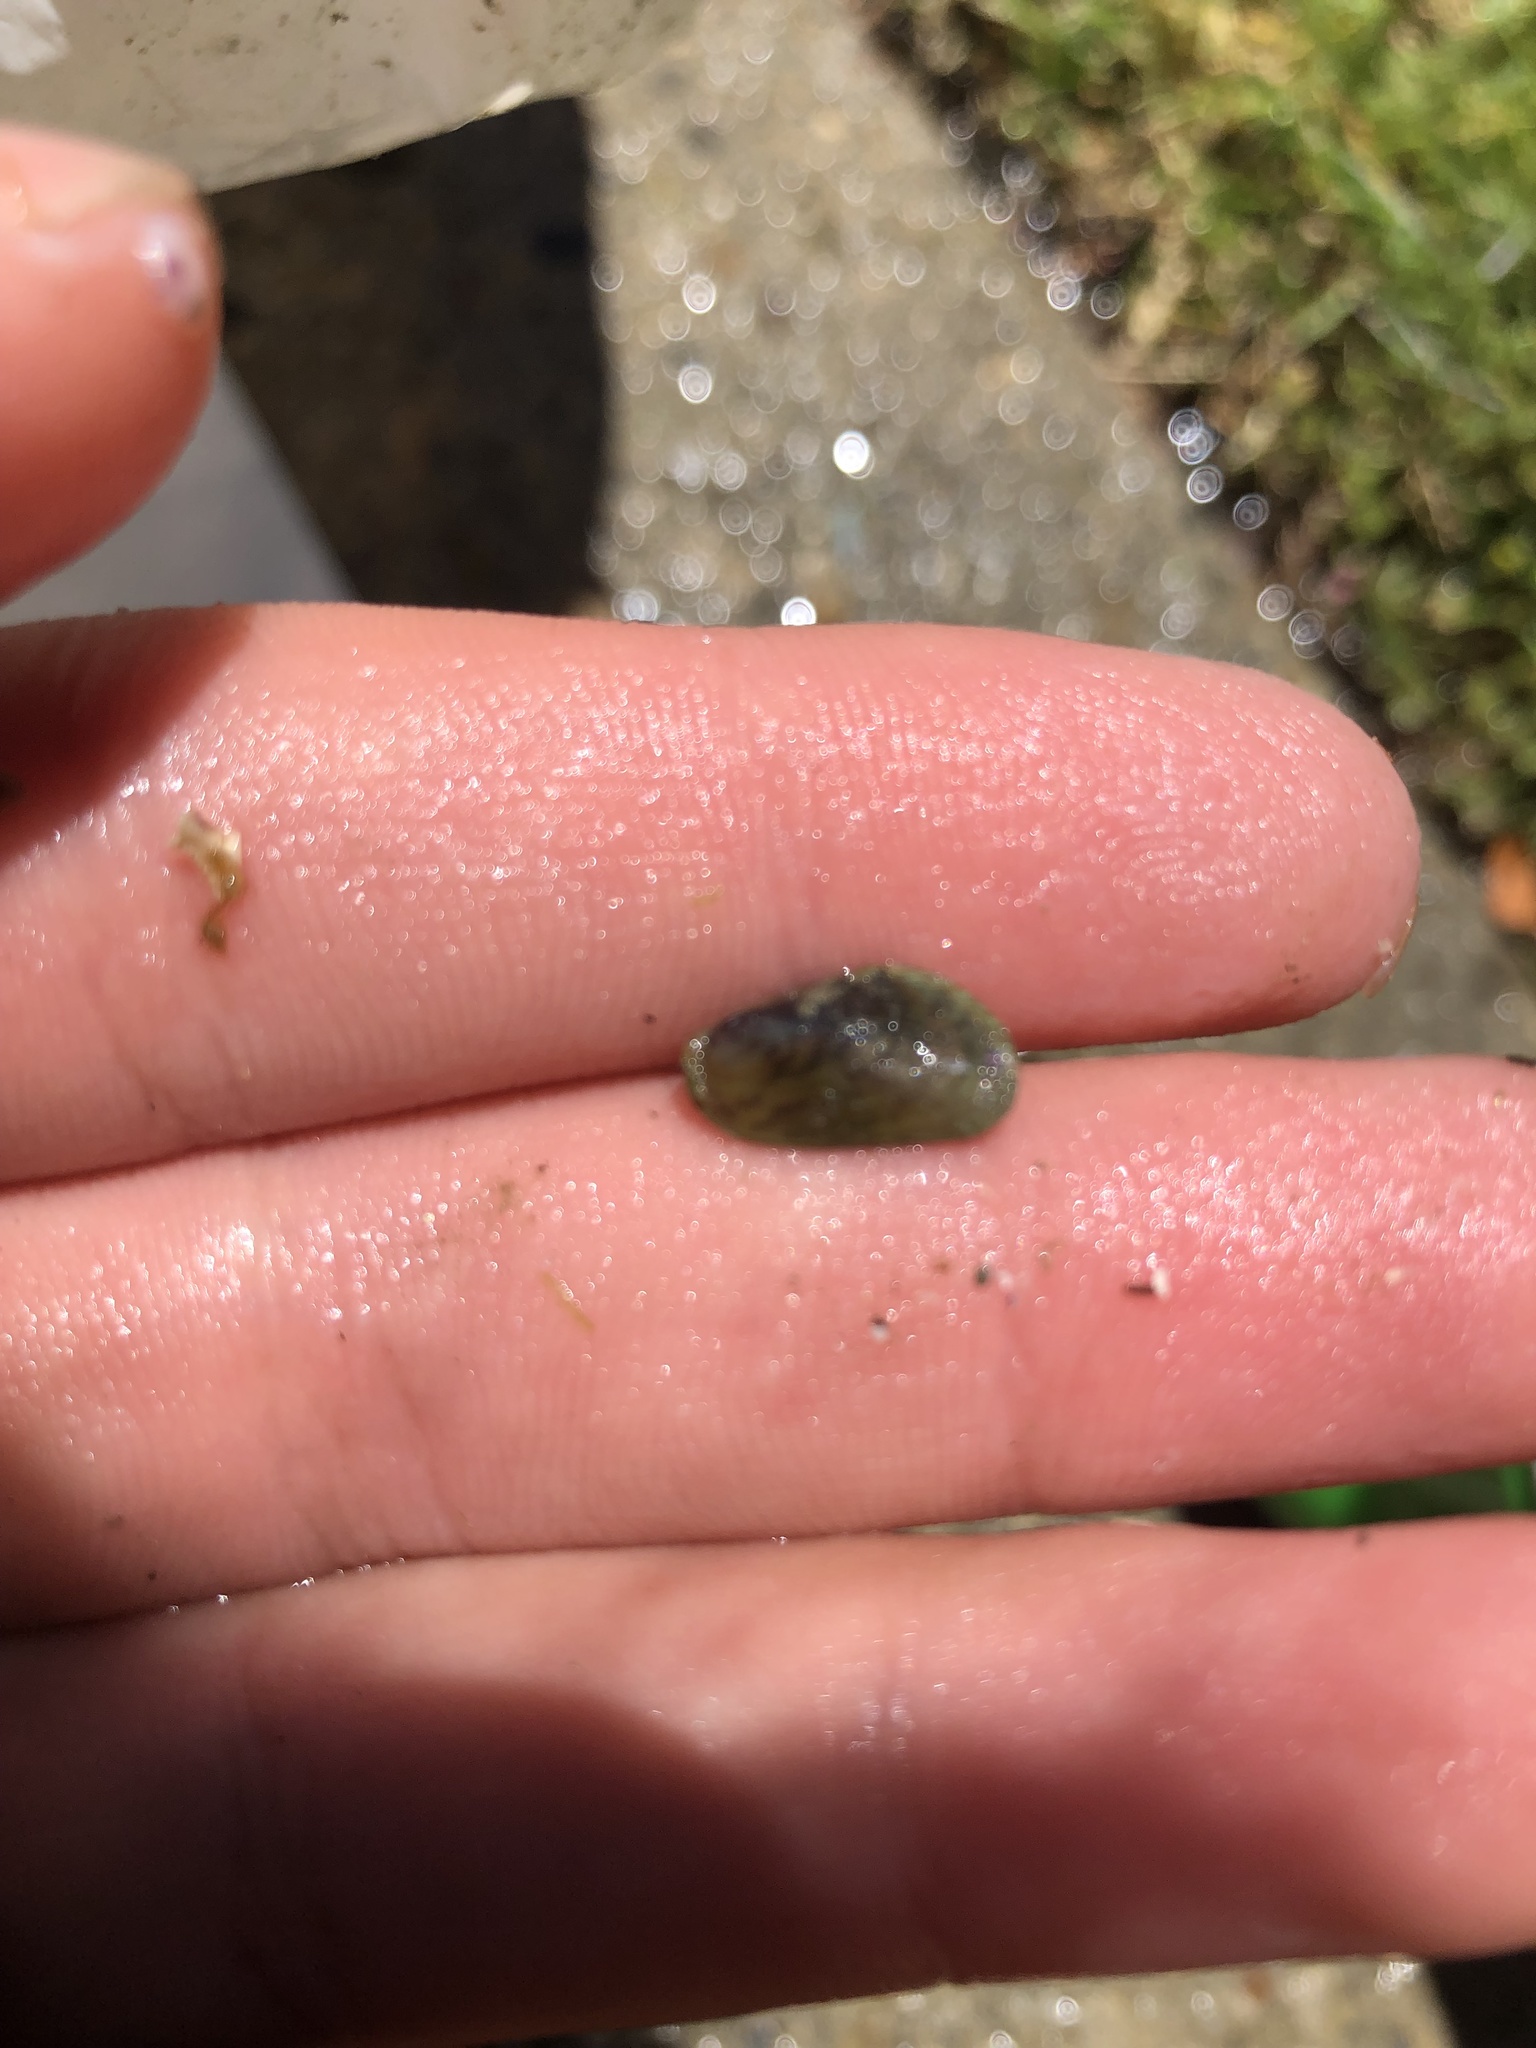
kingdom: Animalia
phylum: Mollusca
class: Bivalvia
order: Mytilida
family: Mytilidae
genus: Arcuatula
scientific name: Arcuatula senhousia
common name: Asian mussel
